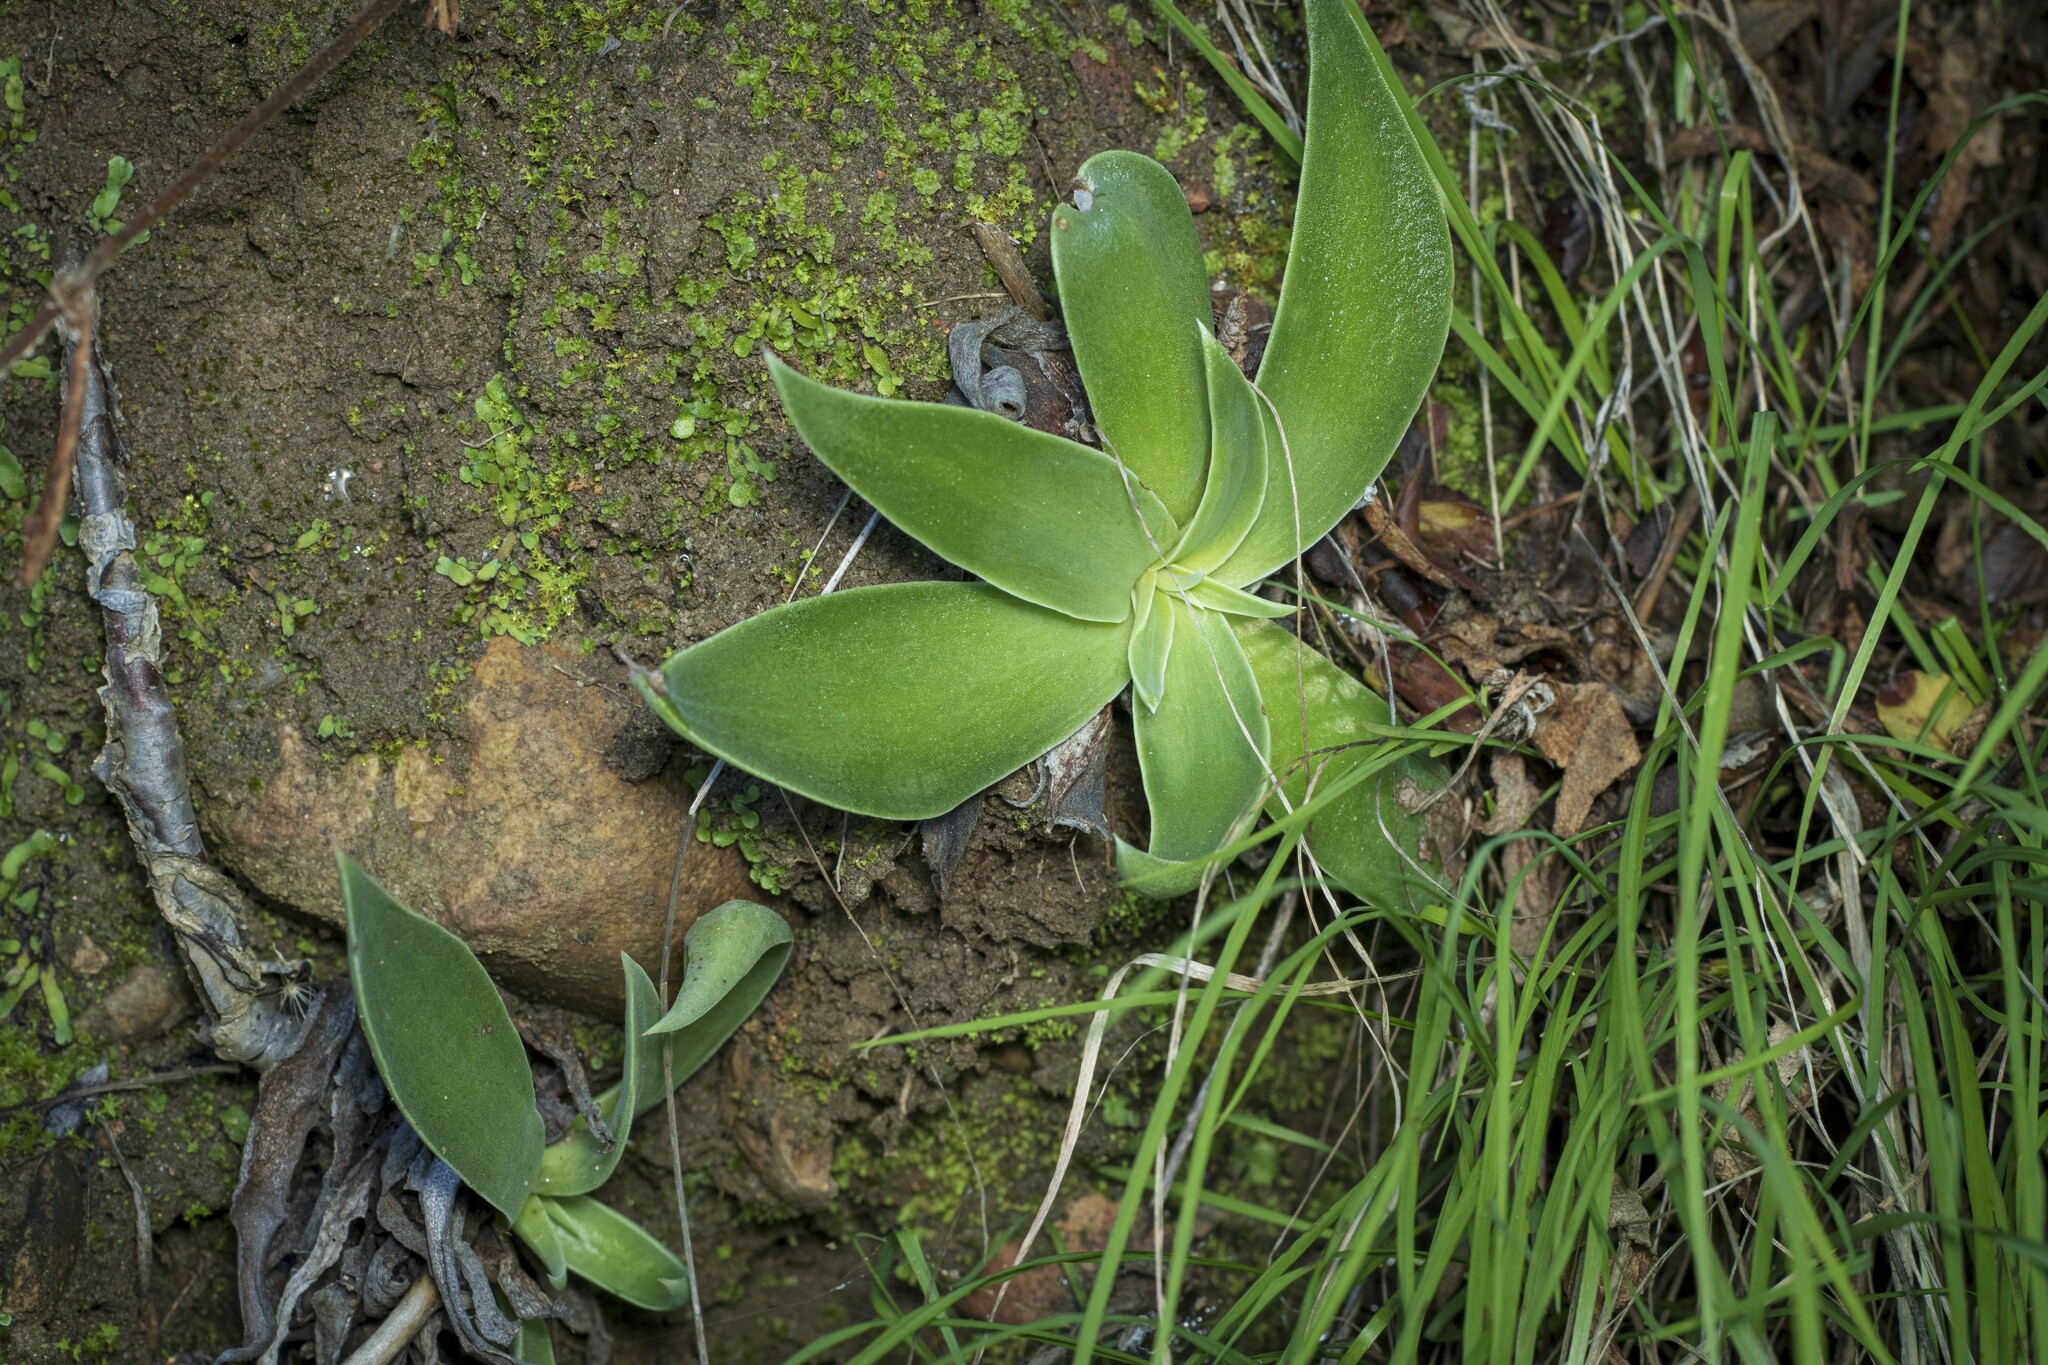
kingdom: Plantae
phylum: Tracheophyta
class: Magnoliopsida
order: Saxifragales
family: Crassulaceae
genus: Dudleya
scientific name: Dudleya lanceolata
